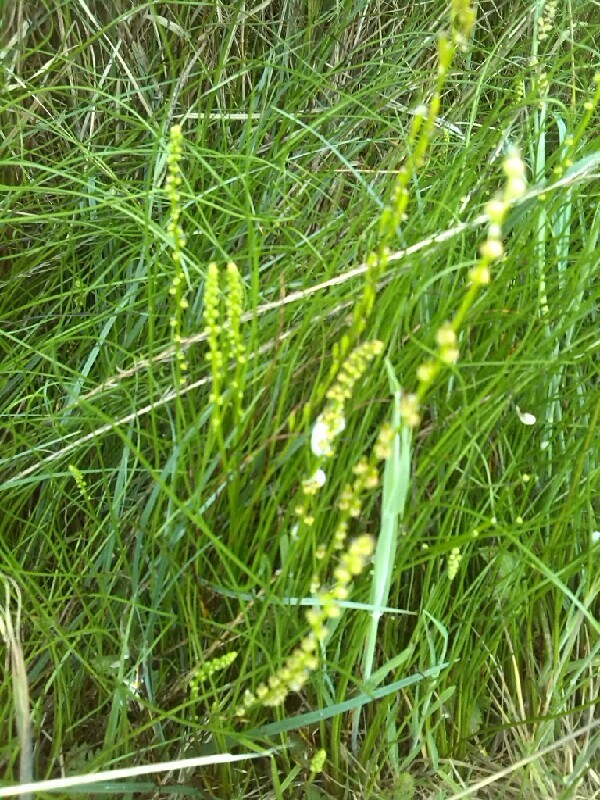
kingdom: Plantae
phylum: Tracheophyta
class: Liliopsida
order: Alismatales
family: Juncaginaceae
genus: Triglochin
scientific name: Triglochin palustris
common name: Marsh arrowgrass
